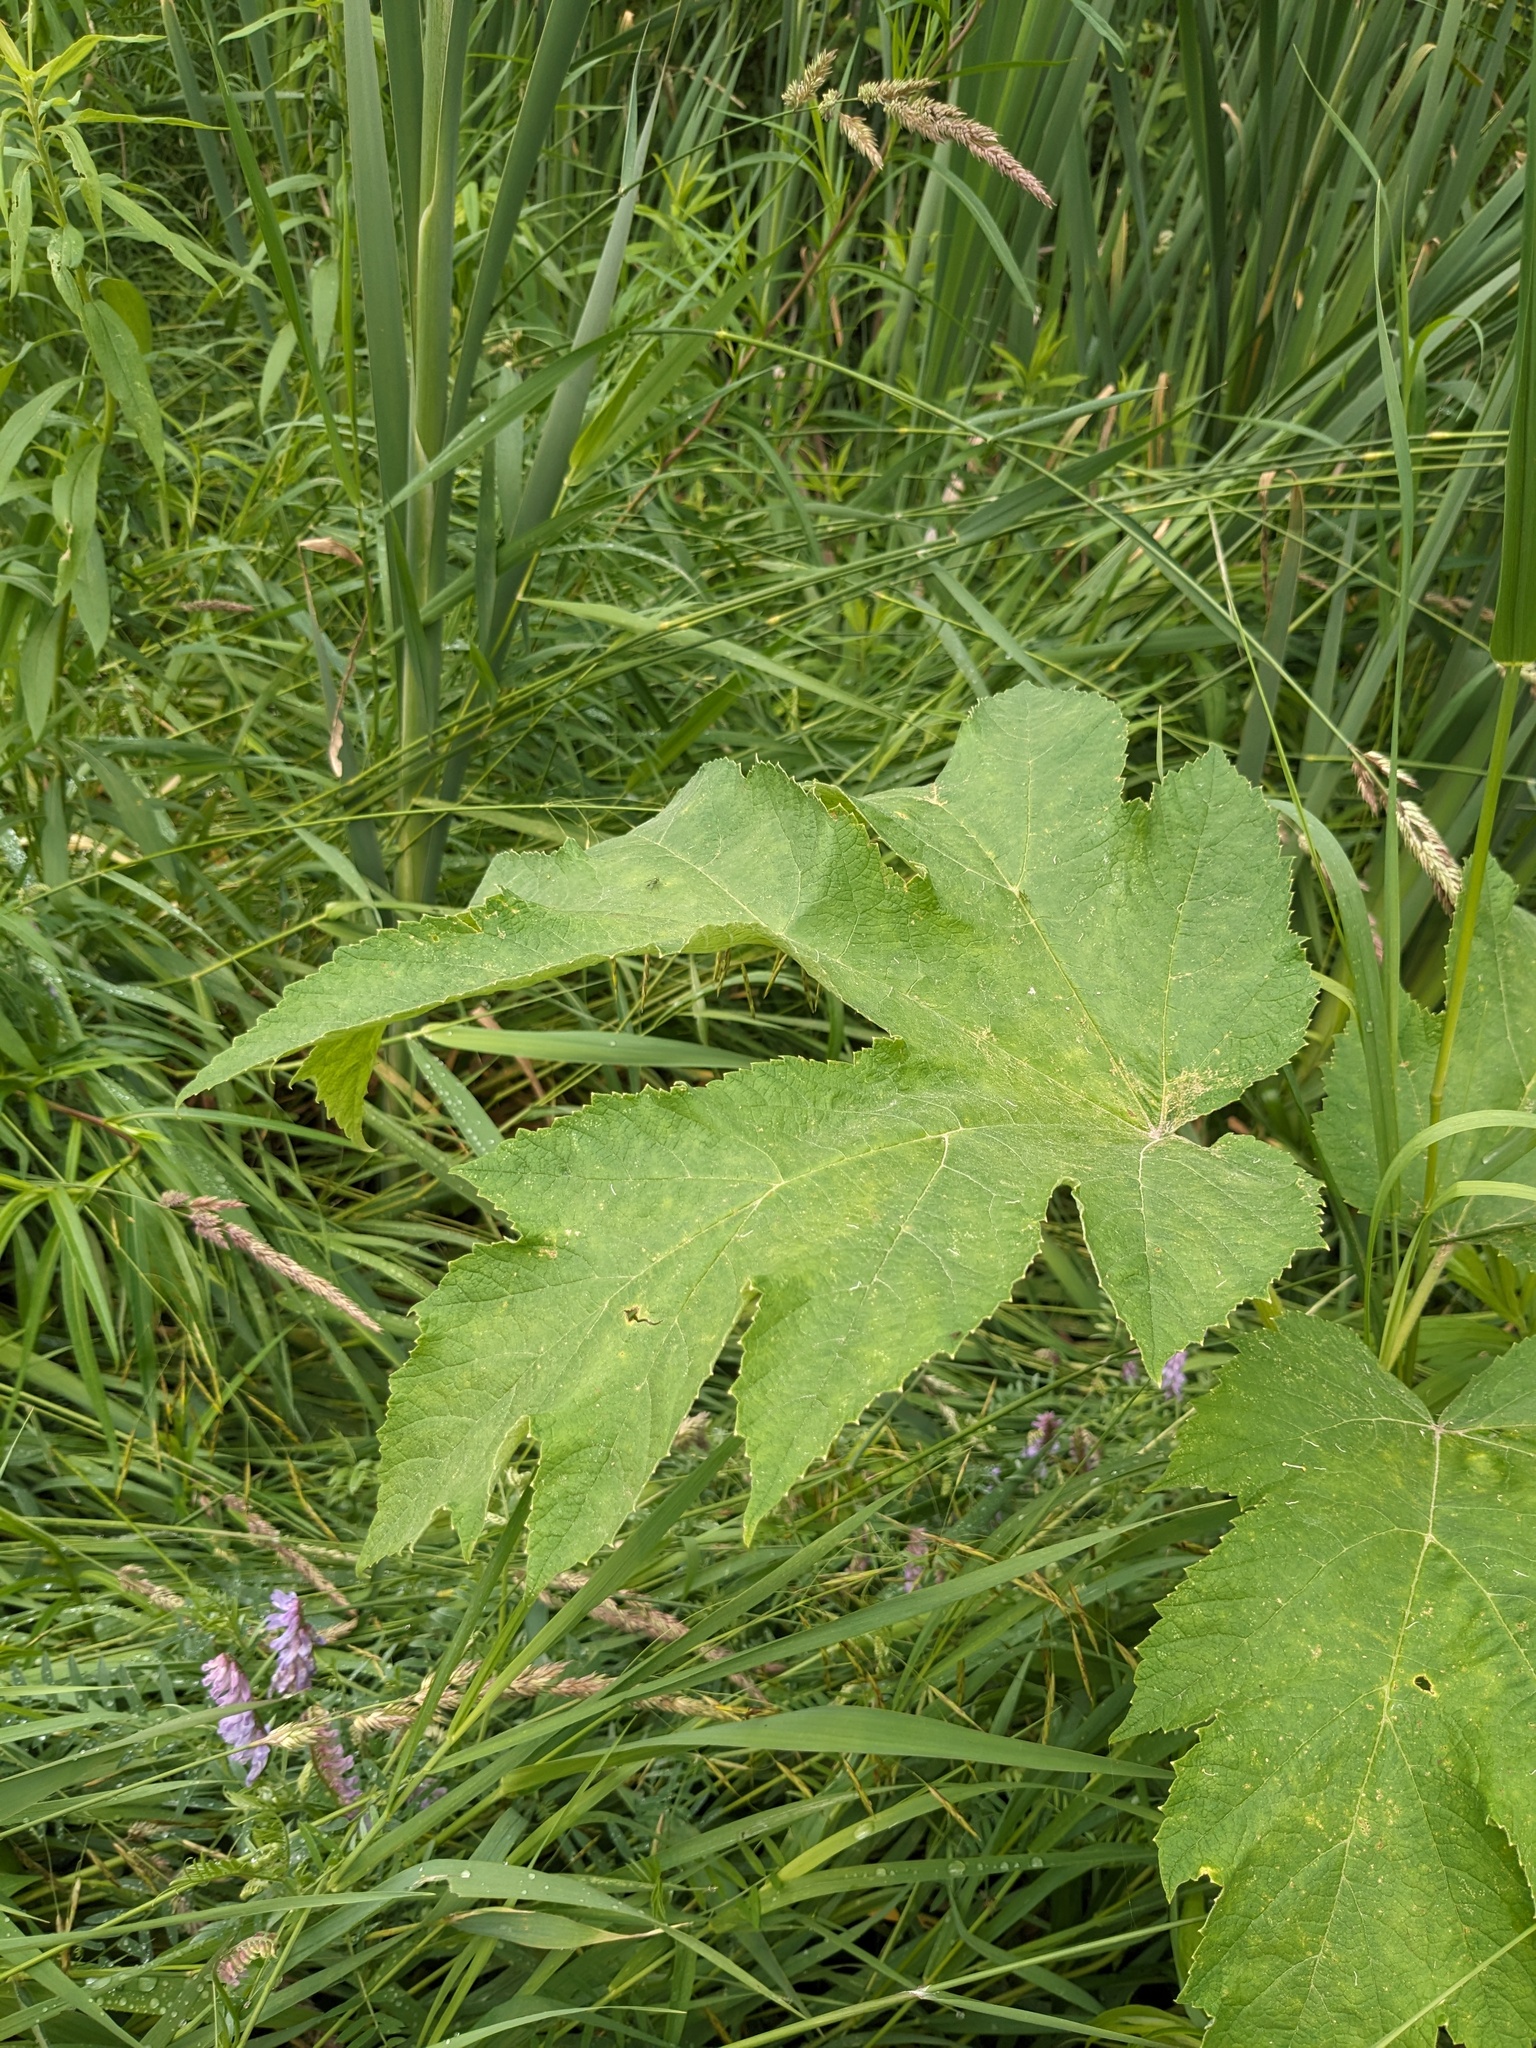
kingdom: Plantae
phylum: Tracheophyta
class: Magnoliopsida
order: Apiales
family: Apiaceae
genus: Heracleum
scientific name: Heracleum maximum
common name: American cow parsnip
